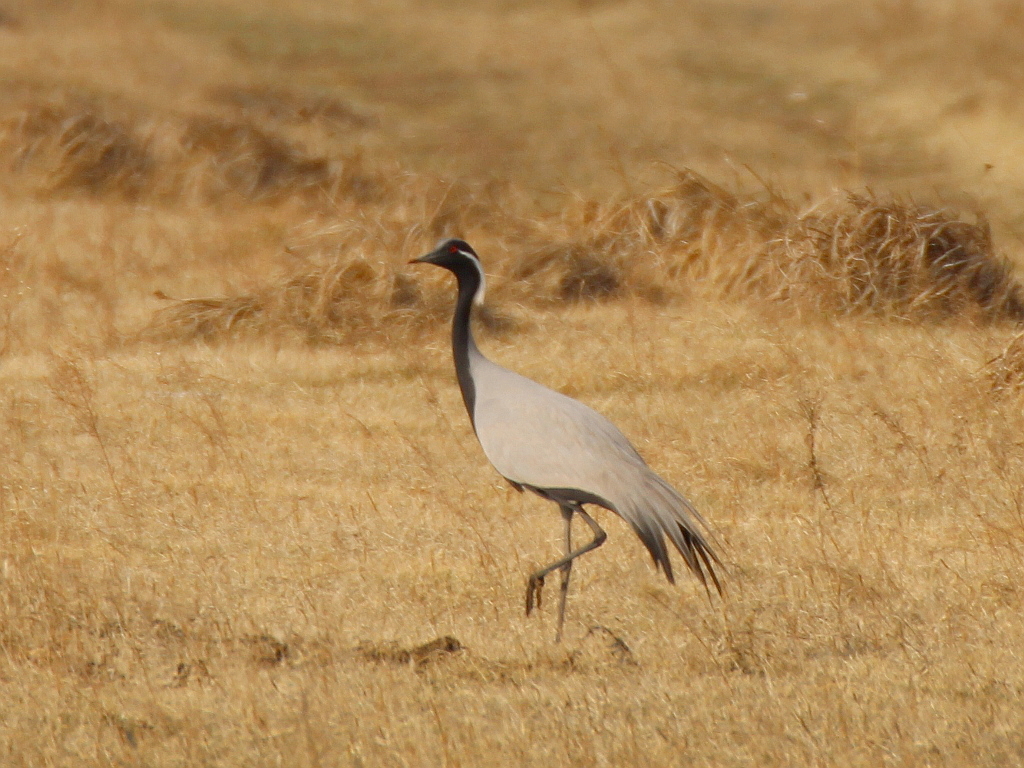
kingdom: Animalia
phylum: Chordata
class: Aves
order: Gruiformes
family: Gruidae
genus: Anthropoides
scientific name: Anthropoides virgo
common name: Demoiselle crane
